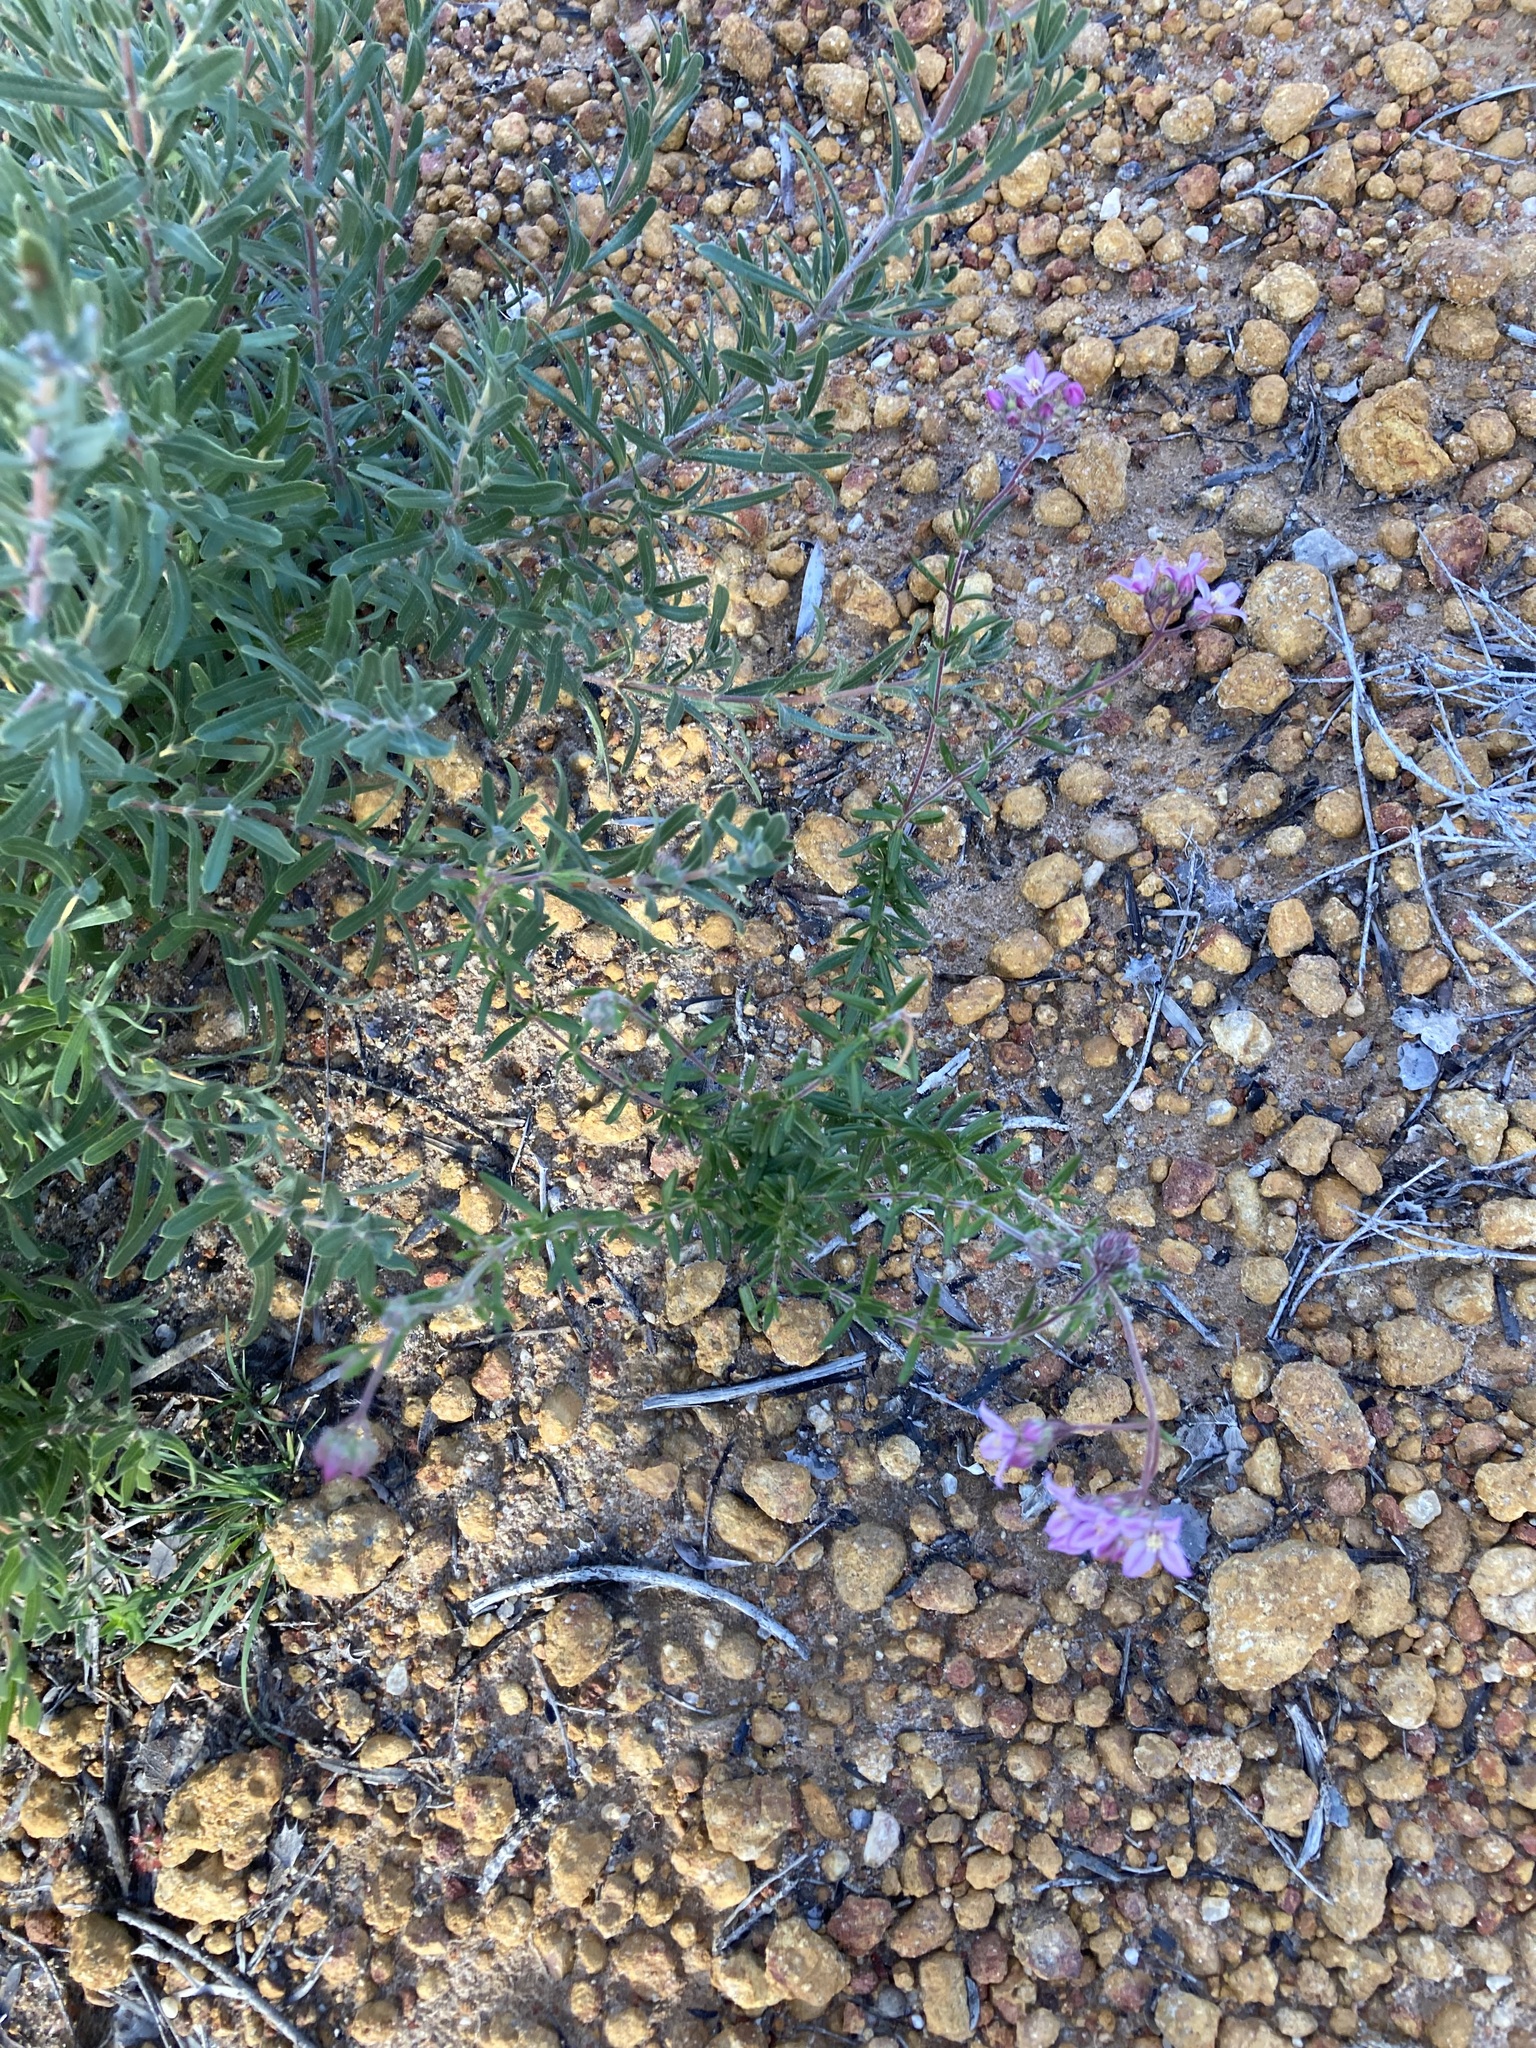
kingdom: Plantae
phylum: Tracheophyta
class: Magnoliopsida
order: Sapindales
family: Rutaceae
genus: Boronia
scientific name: Boronia scabra
